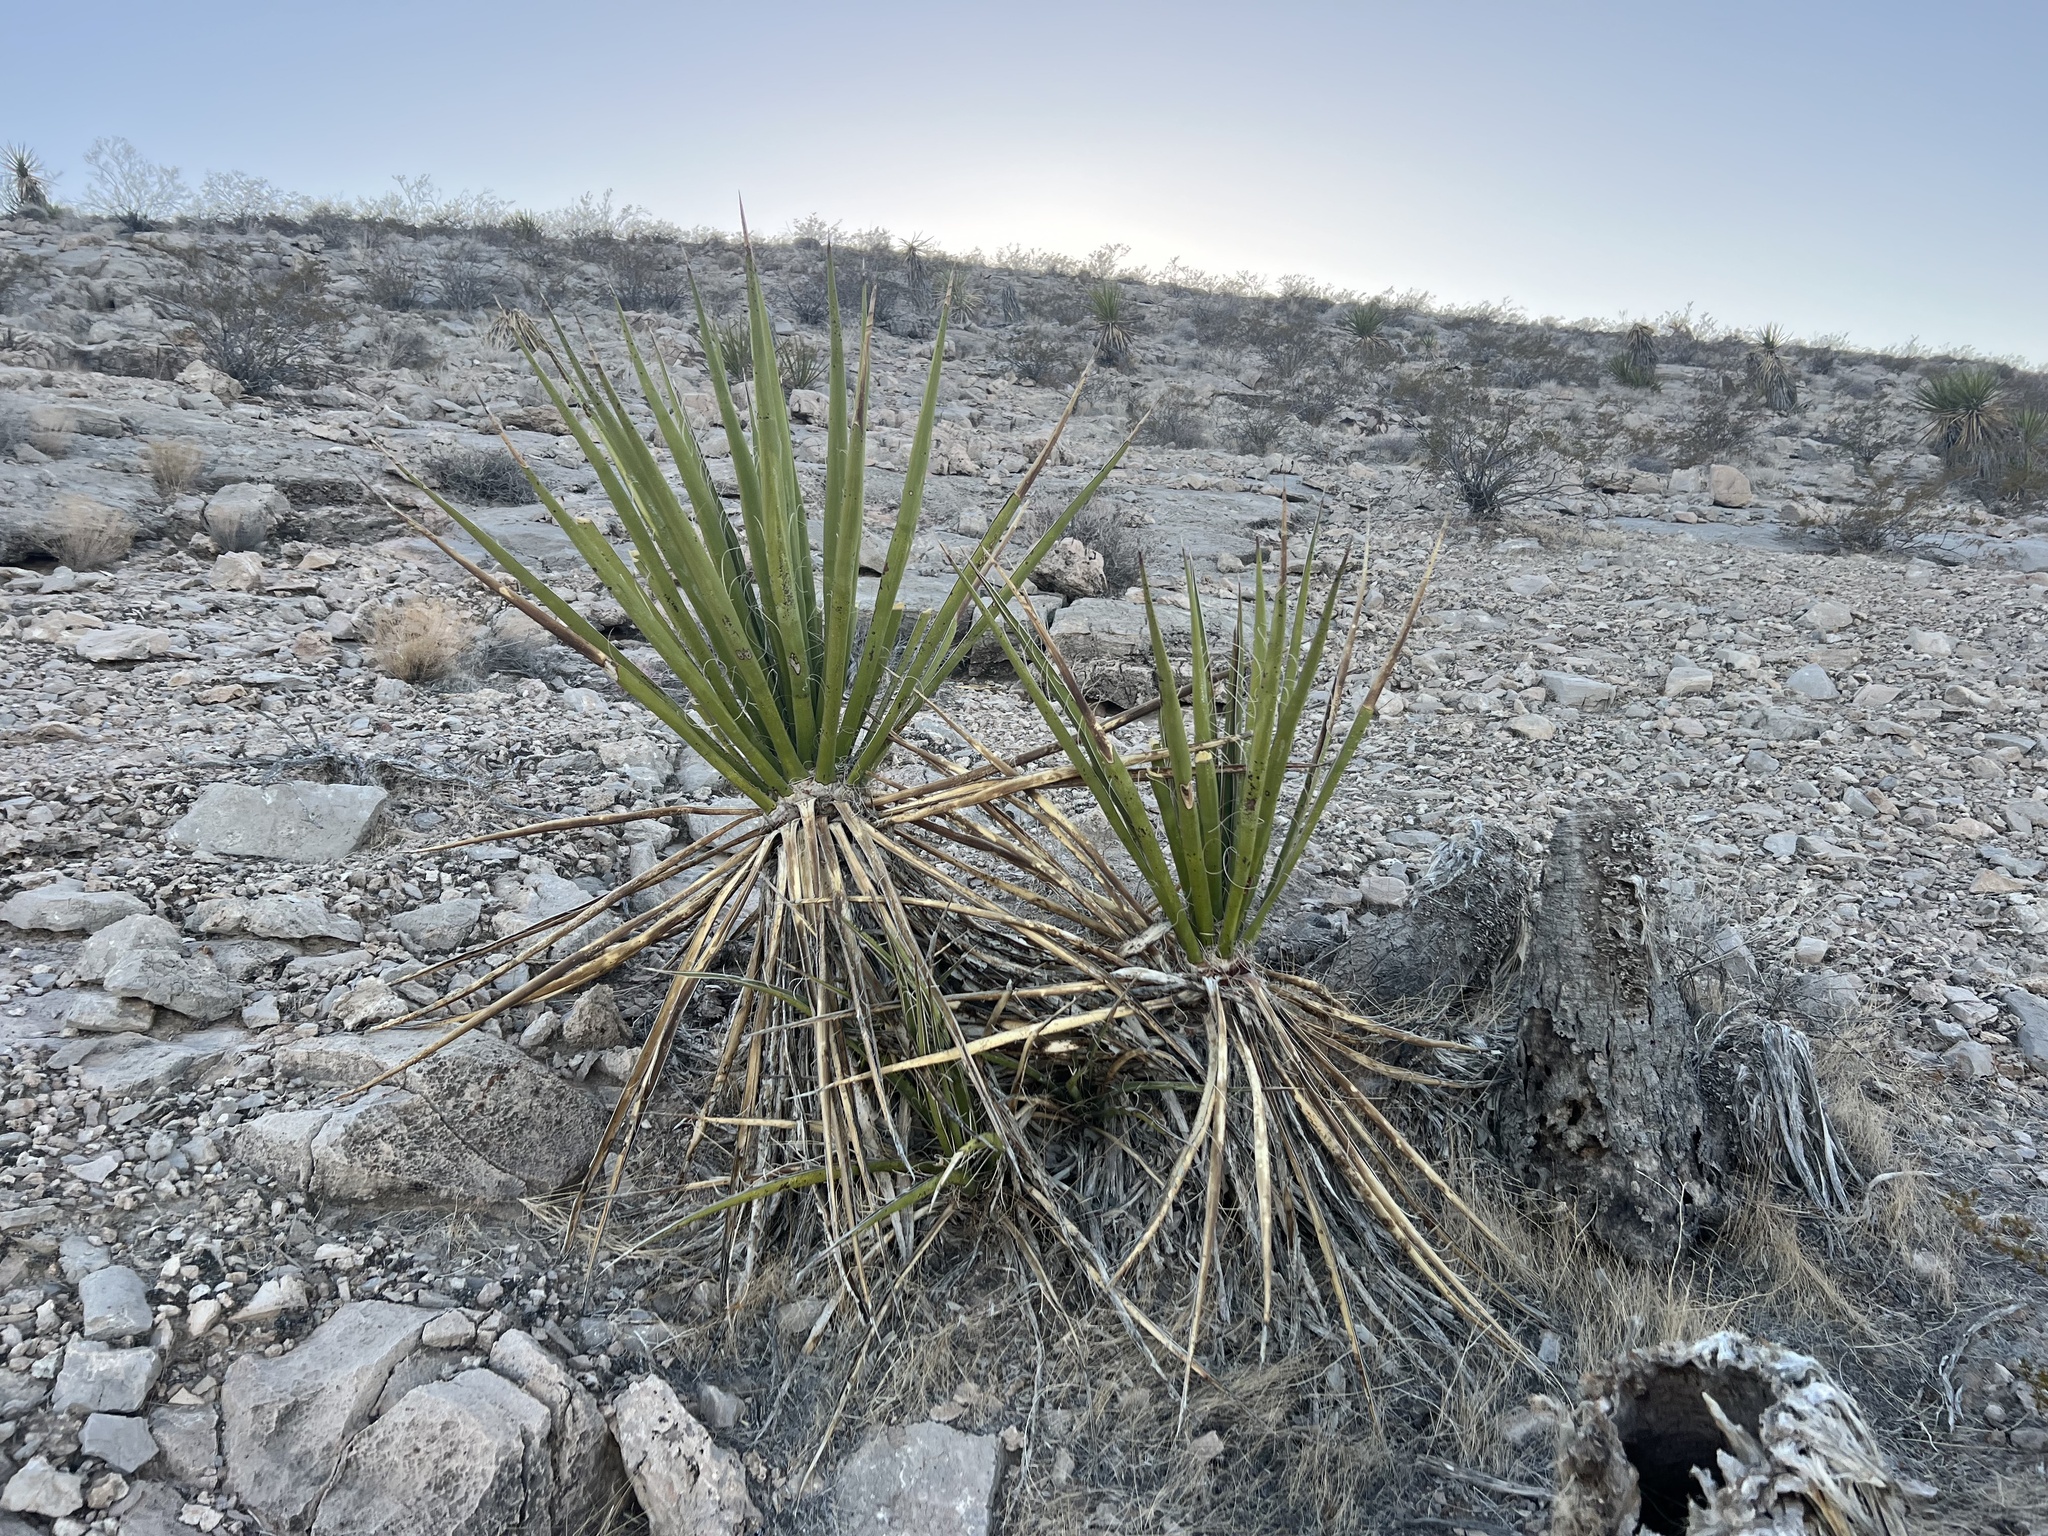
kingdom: Plantae
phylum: Tracheophyta
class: Liliopsida
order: Asparagales
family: Asparagaceae
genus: Yucca
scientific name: Yucca schidigera
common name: Mojave yucca
